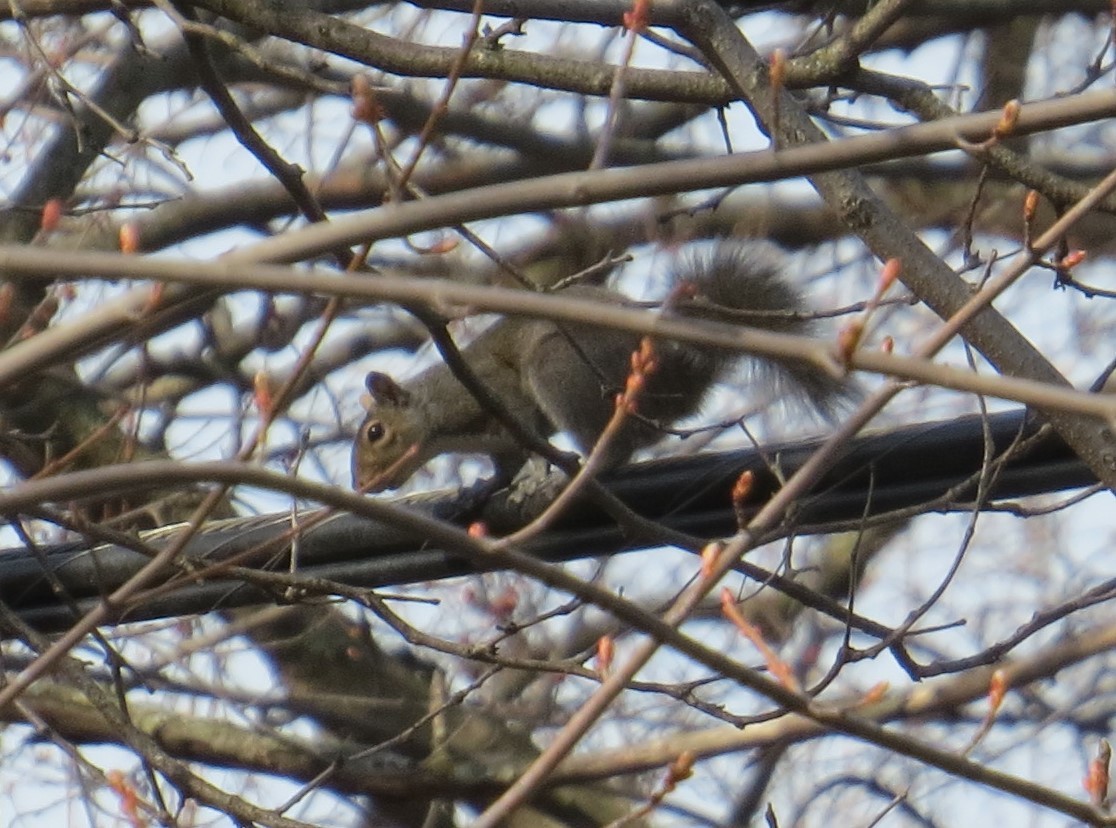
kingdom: Animalia
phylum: Chordata
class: Mammalia
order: Rodentia
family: Sciuridae
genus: Sciurus
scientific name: Sciurus carolinensis
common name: Eastern gray squirrel
